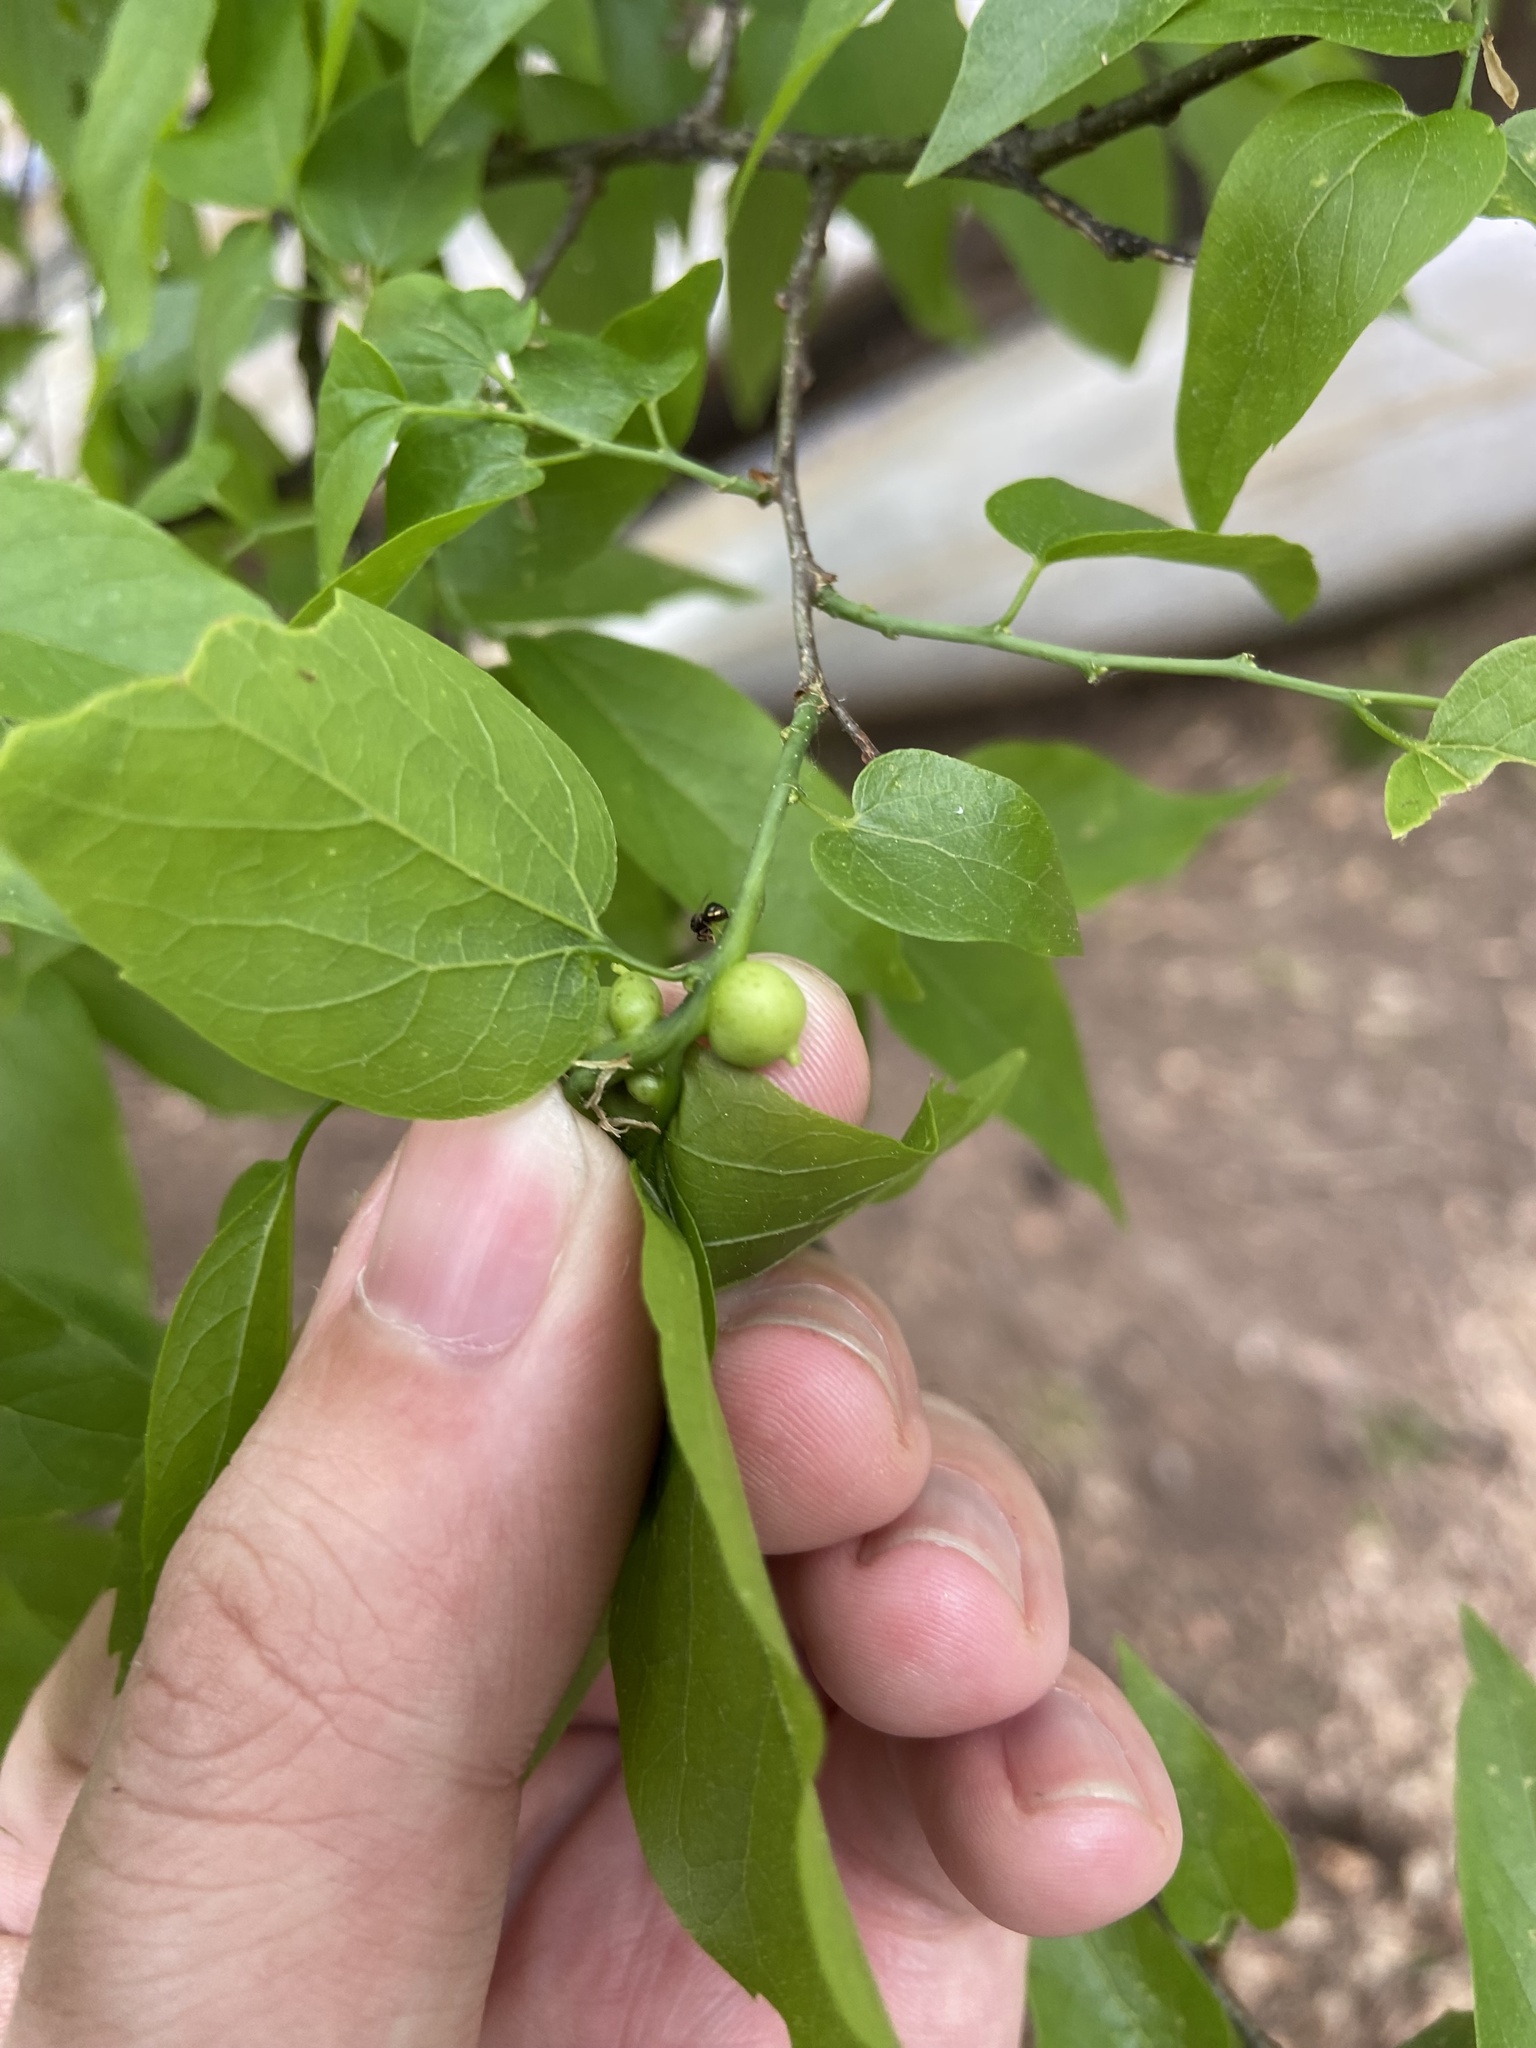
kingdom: Animalia
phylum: Arthropoda
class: Insecta
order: Diptera
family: Cecidomyiidae
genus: Celticecis
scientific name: Celticecis connata
